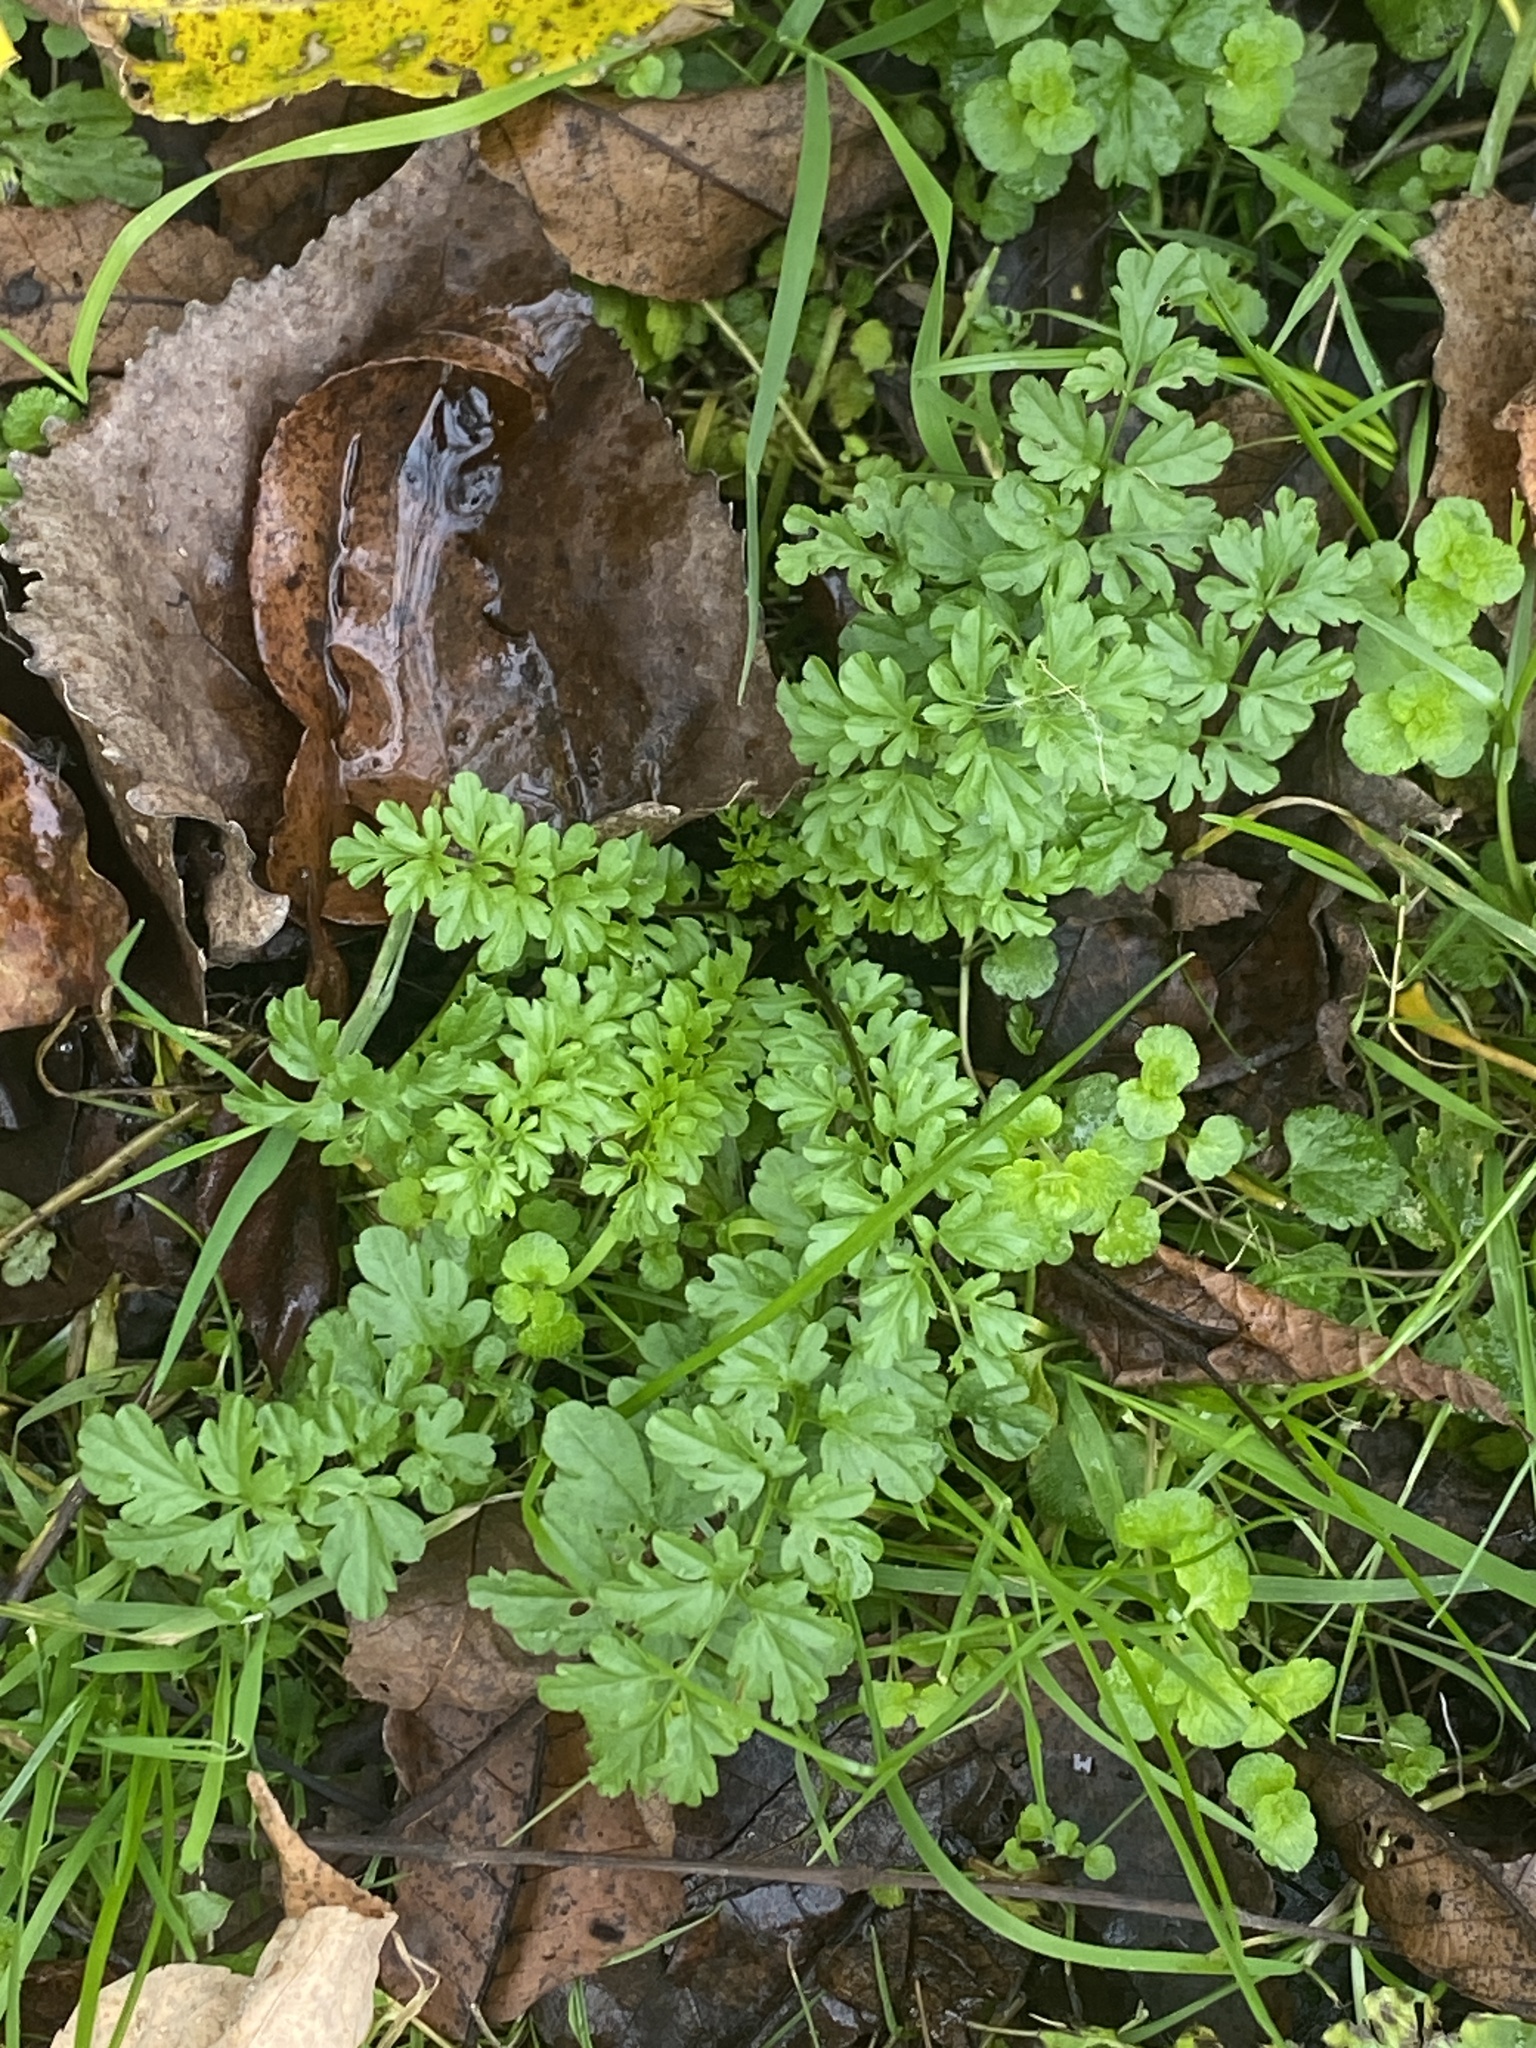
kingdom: Plantae
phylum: Tracheophyta
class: Magnoliopsida
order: Brassicales
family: Brassicaceae
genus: Cardamine
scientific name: Cardamine impatiens
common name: Narrow-leaved bitter-cress
